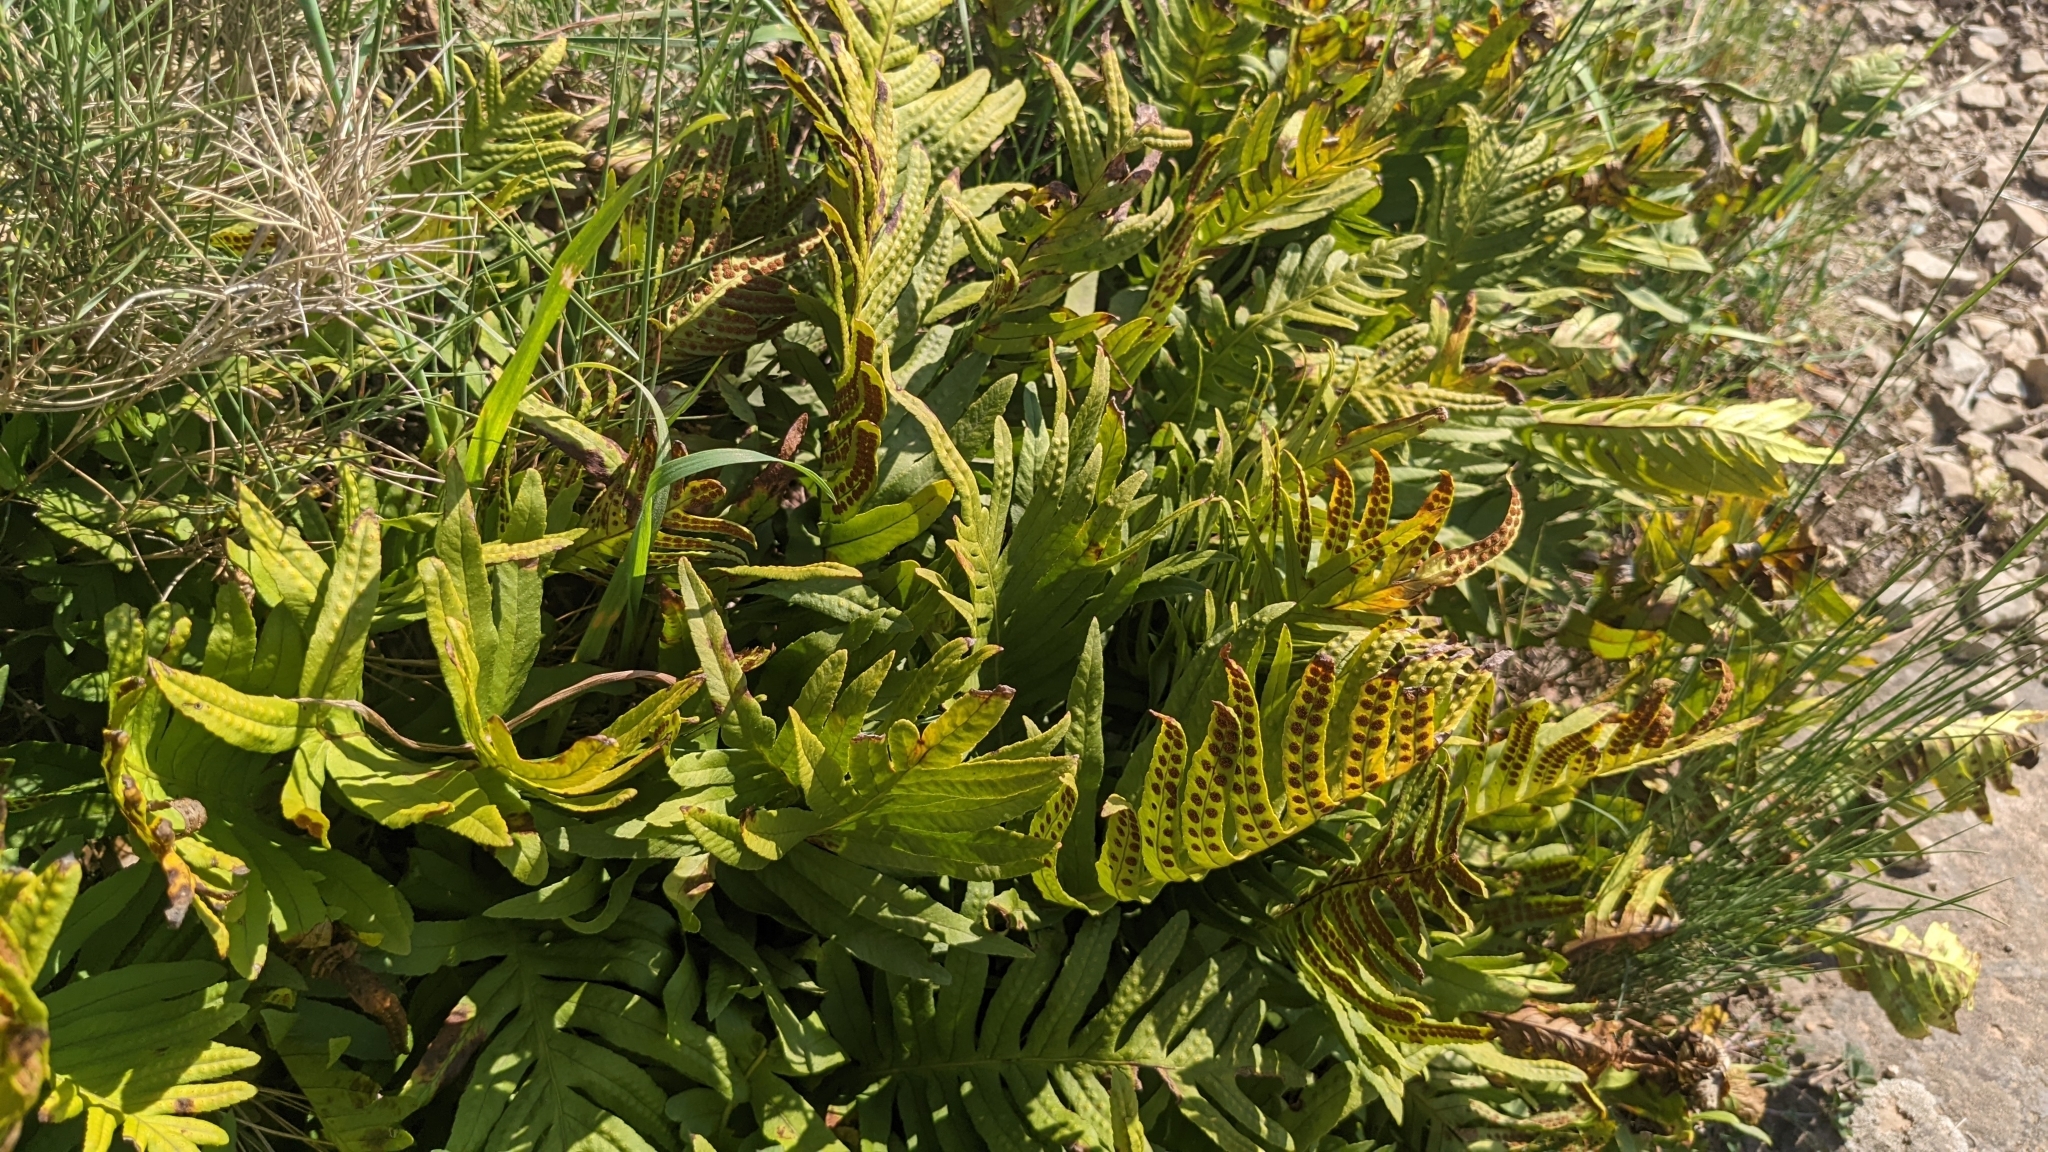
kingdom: Plantae
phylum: Tracheophyta
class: Polypodiopsida
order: Polypodiales
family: Polypodiaceae
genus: Polypodium
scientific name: Polypodium cambricum
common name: Southern polypody
